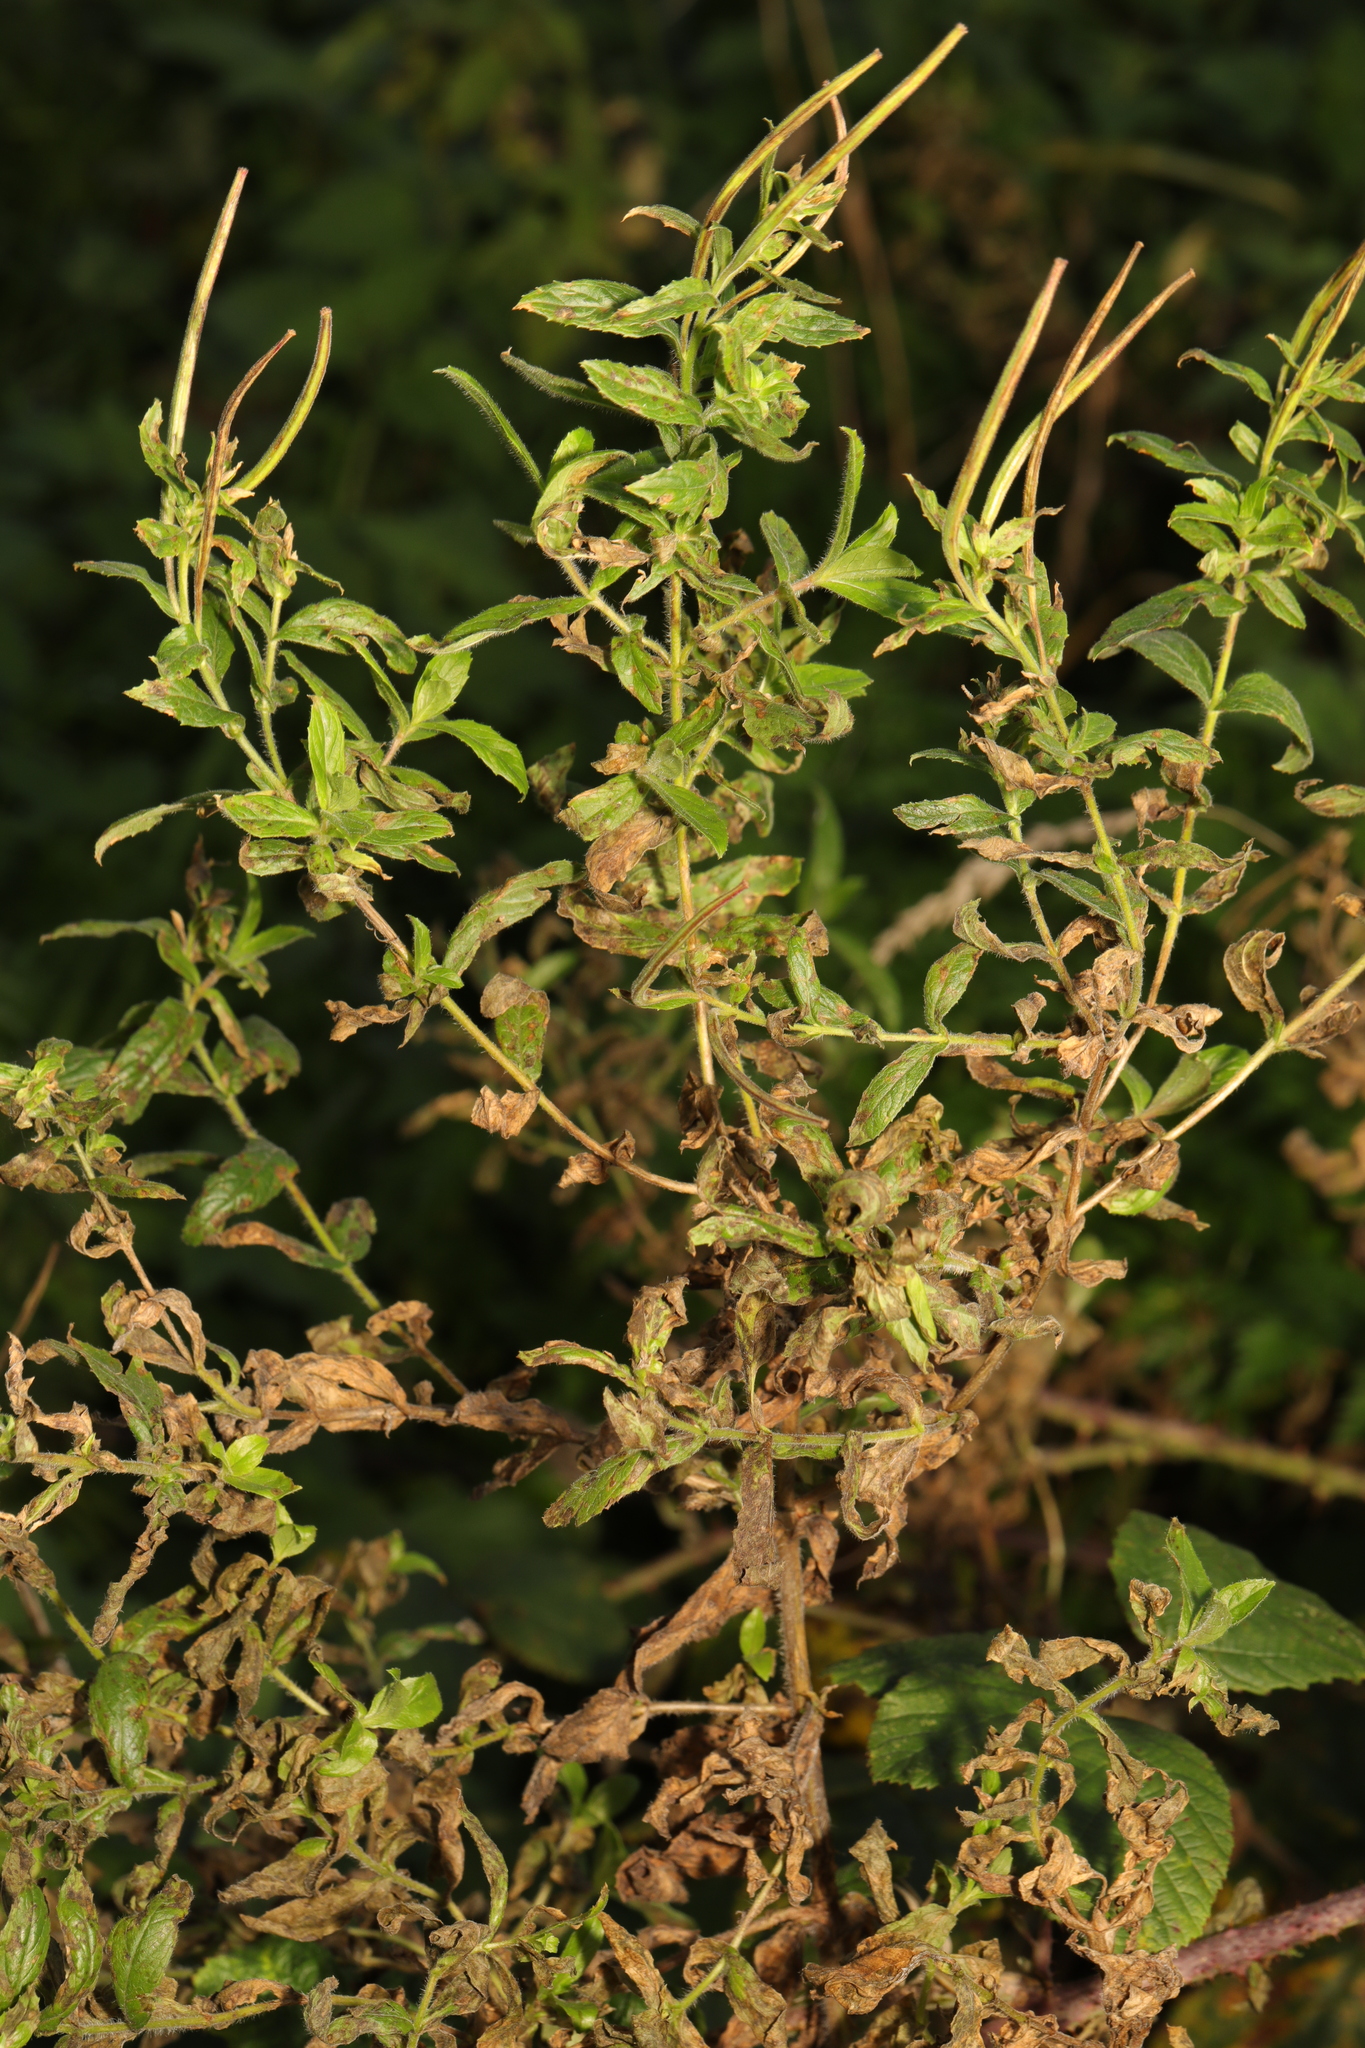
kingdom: Plantae
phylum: Tracheophyta
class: Magnoliopsida
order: Myrtales
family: Onagraceae
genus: Epilobium
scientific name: Epilobium hirsutum
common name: Great willowherb
